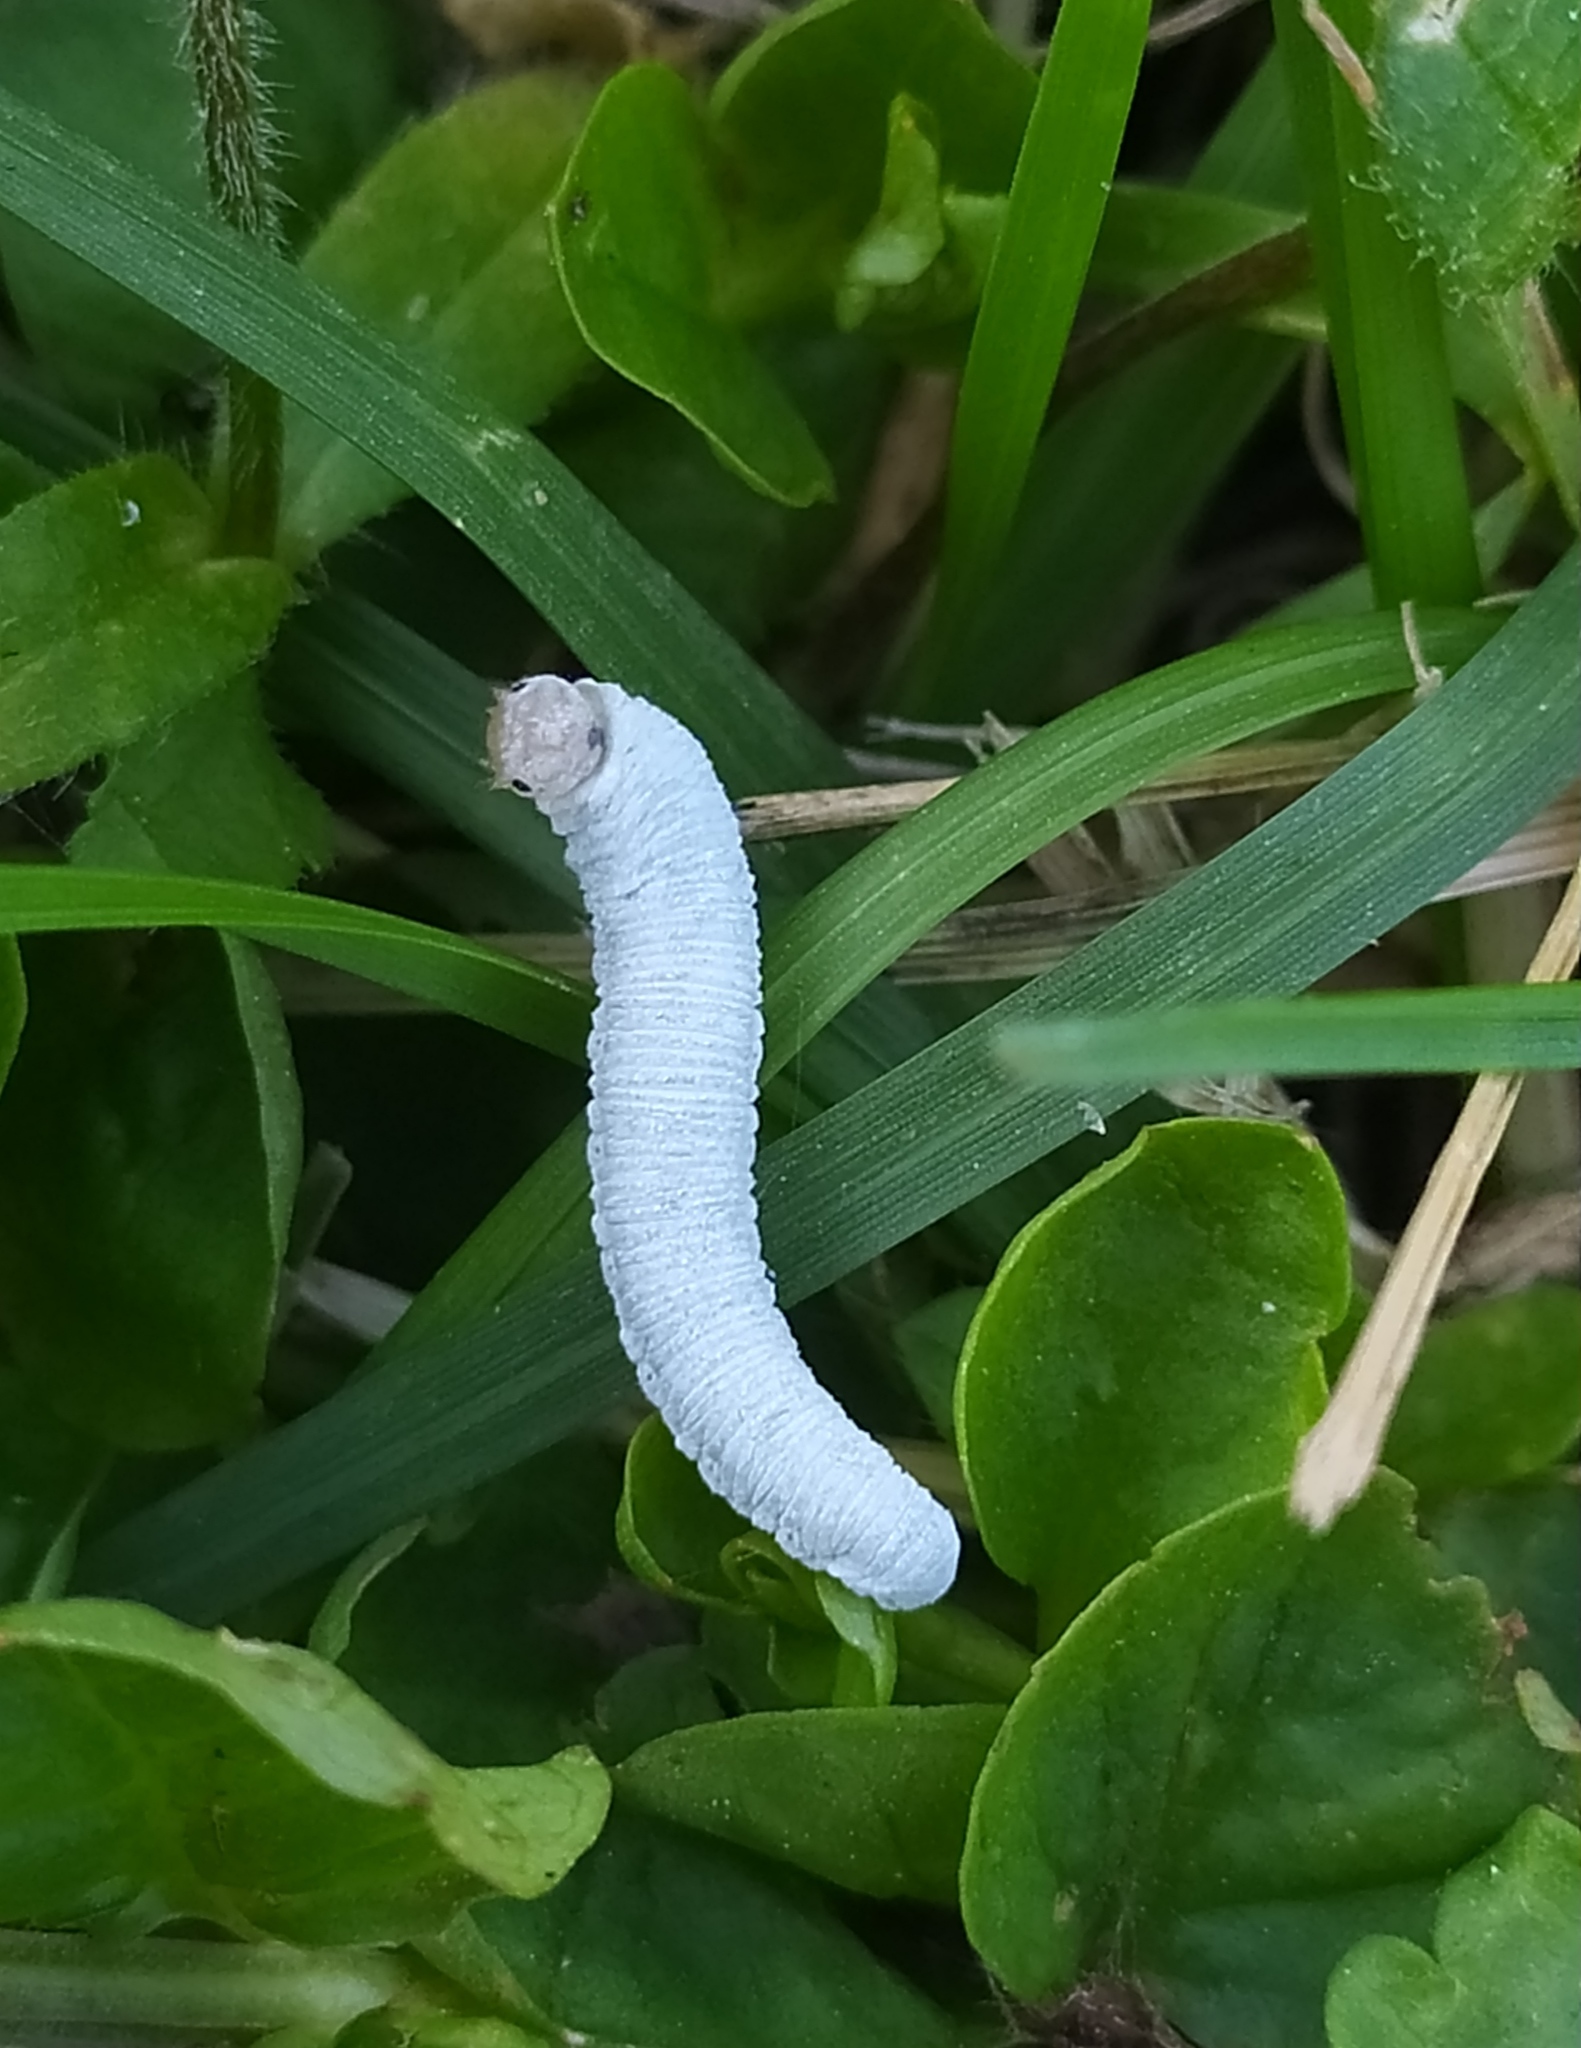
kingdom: Animalia
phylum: Arthropoda
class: Insecta
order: Hymenoptera
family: Tenthredinidae
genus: Monostegia
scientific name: Monostegia abdominalis
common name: Tenthredid wasp
